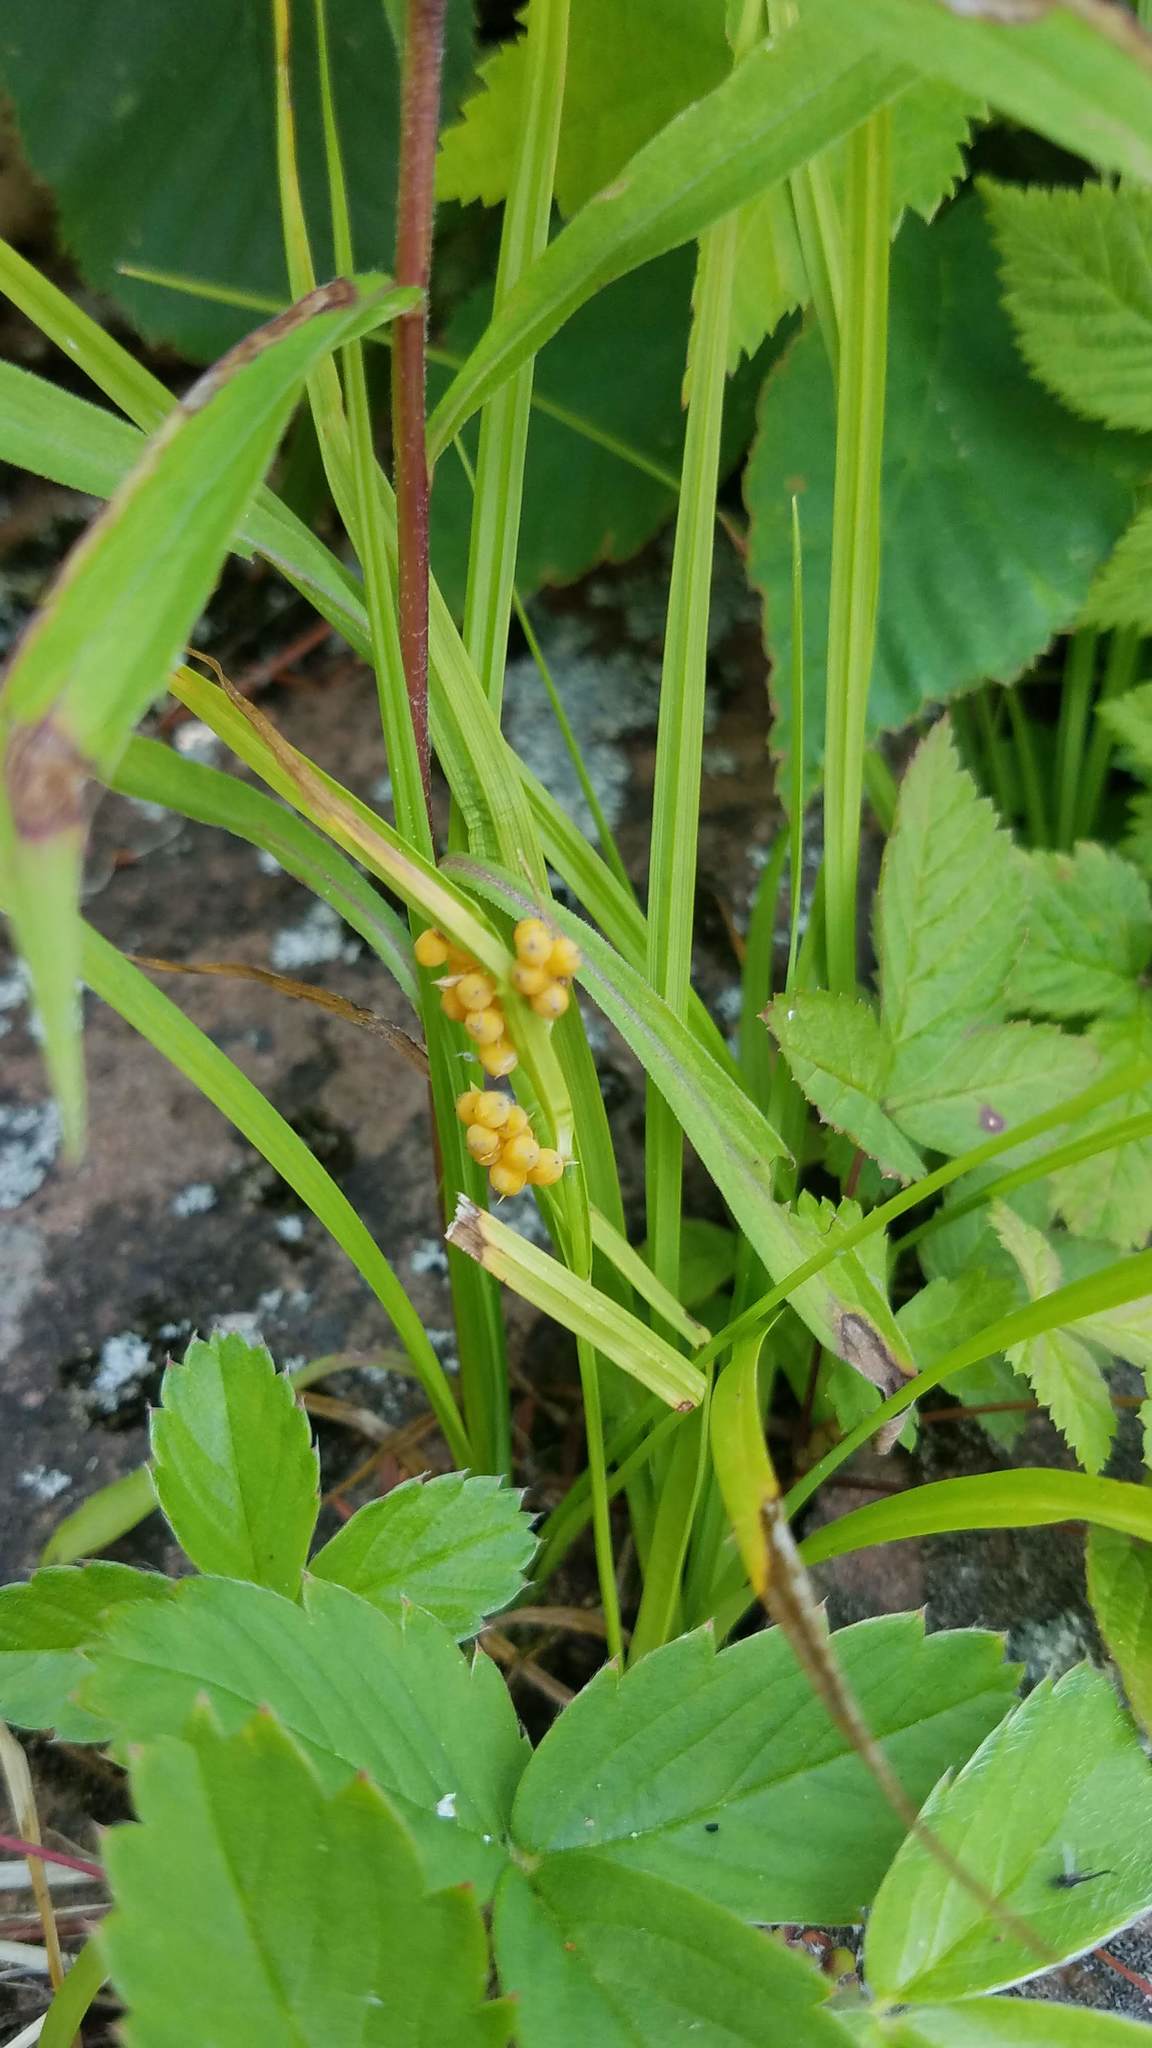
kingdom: Plantae
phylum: Tracheophyta
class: Liliopsida
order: Poales
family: Cyperaceae
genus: Carex
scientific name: Carex aurea
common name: Golden sedge
